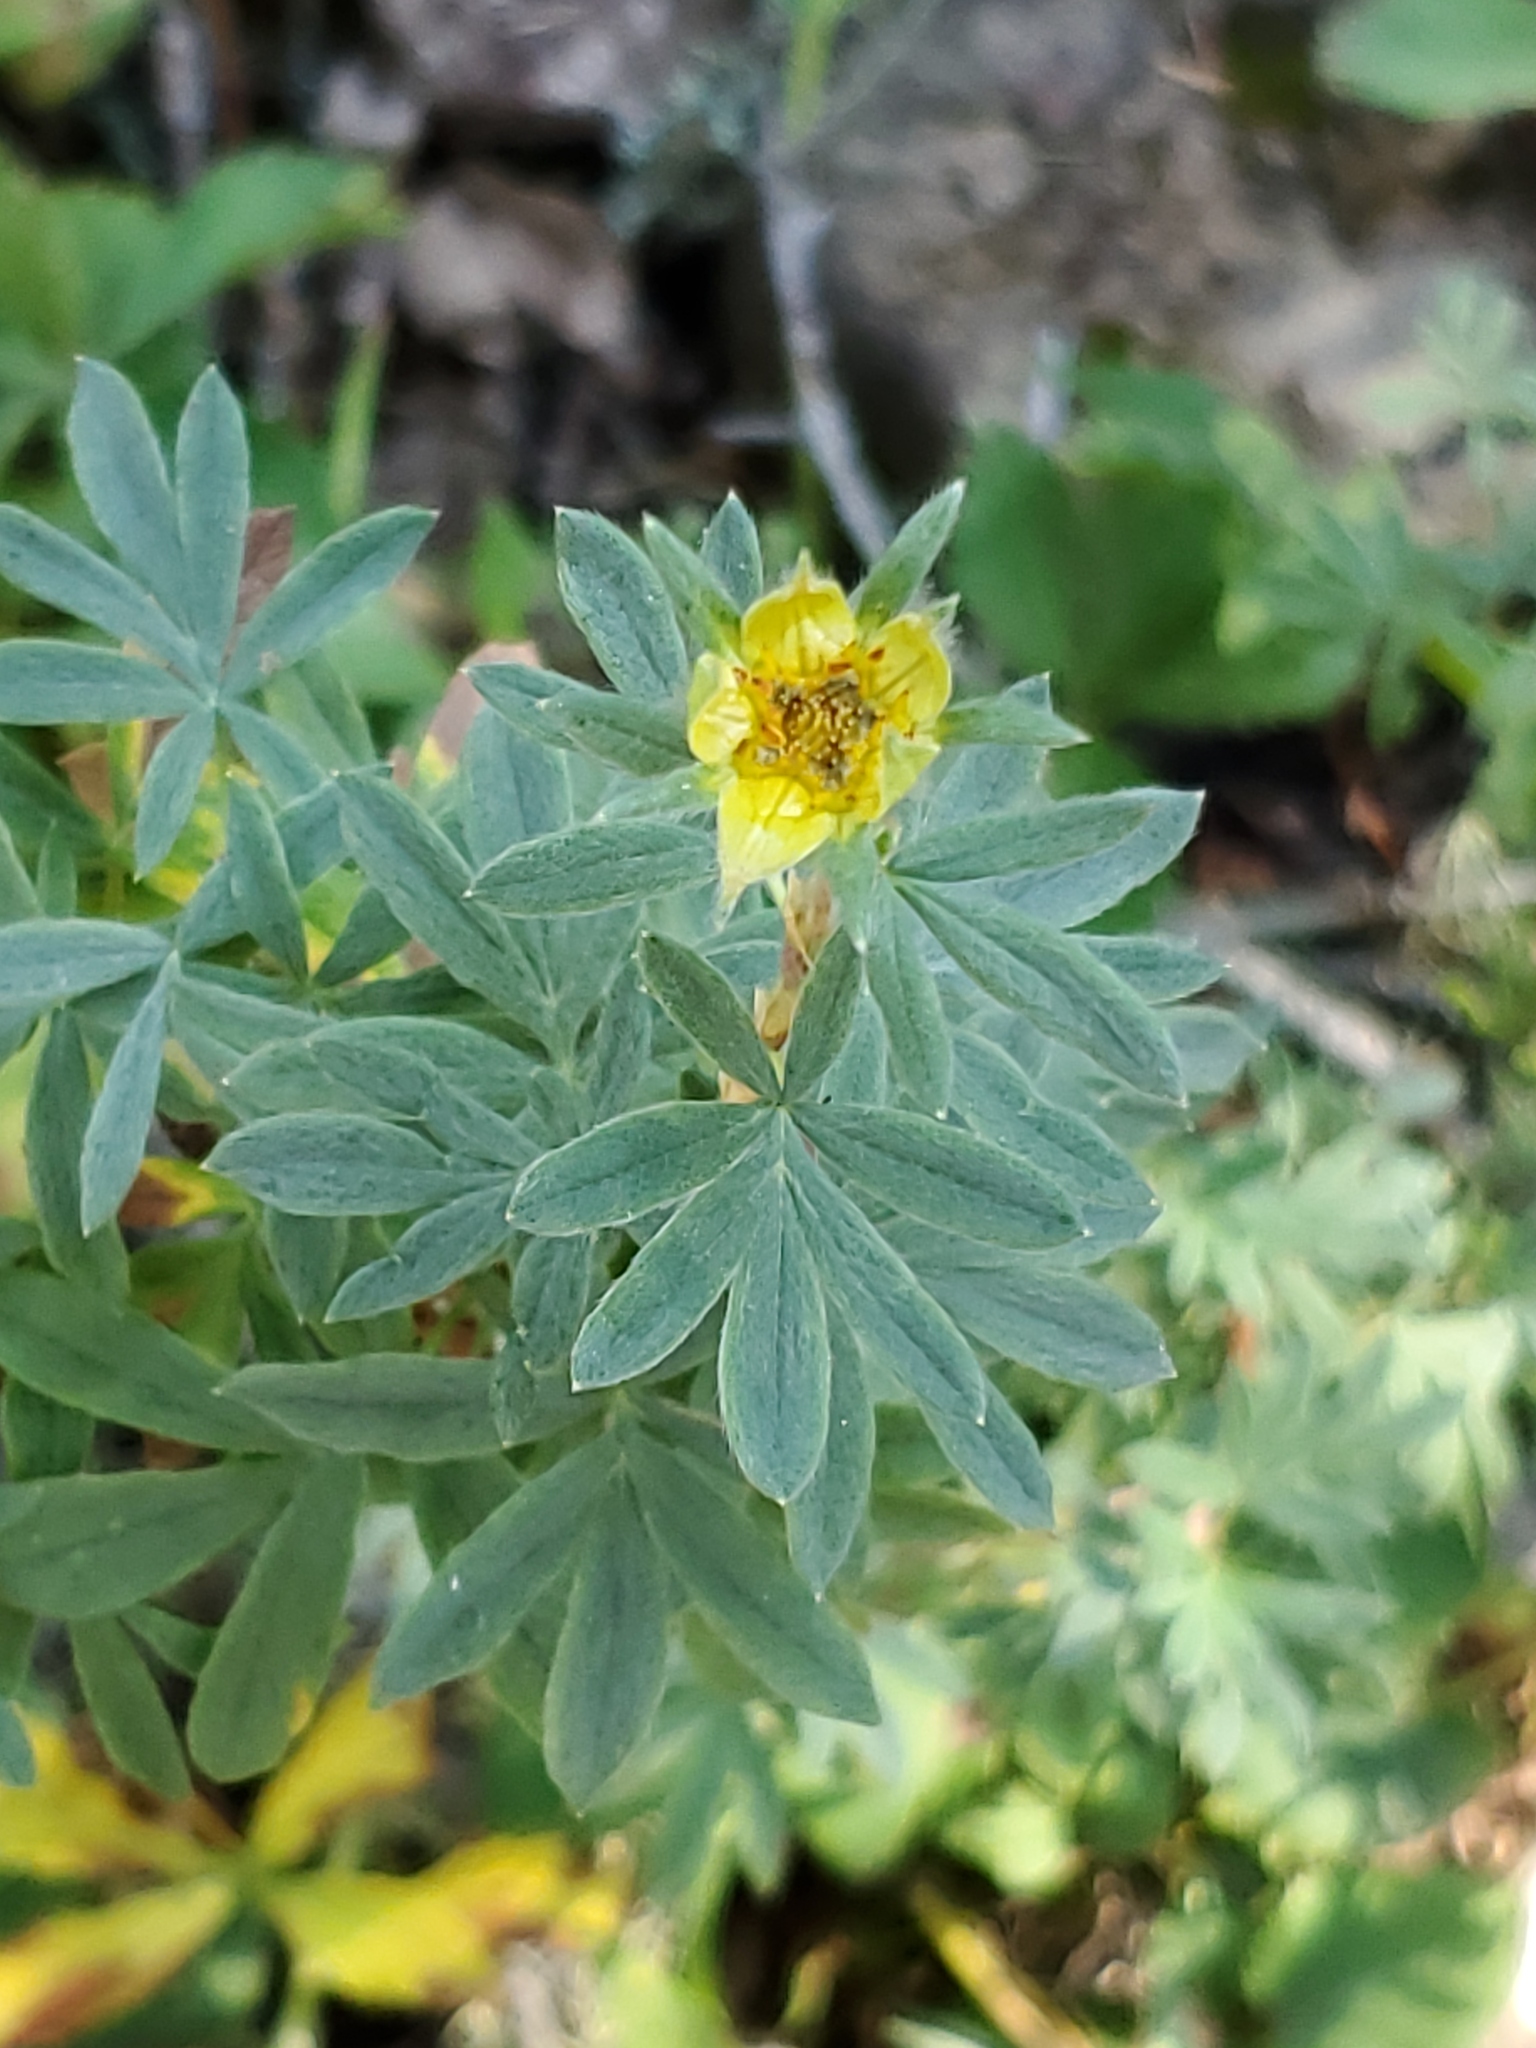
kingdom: Plantae
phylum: Tracheophyta
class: Magnoliopsida
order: Rosales
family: Rosaceae
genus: Dasiphora
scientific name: Dasiphora fruticosa
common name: Shrubby cinquefoil
